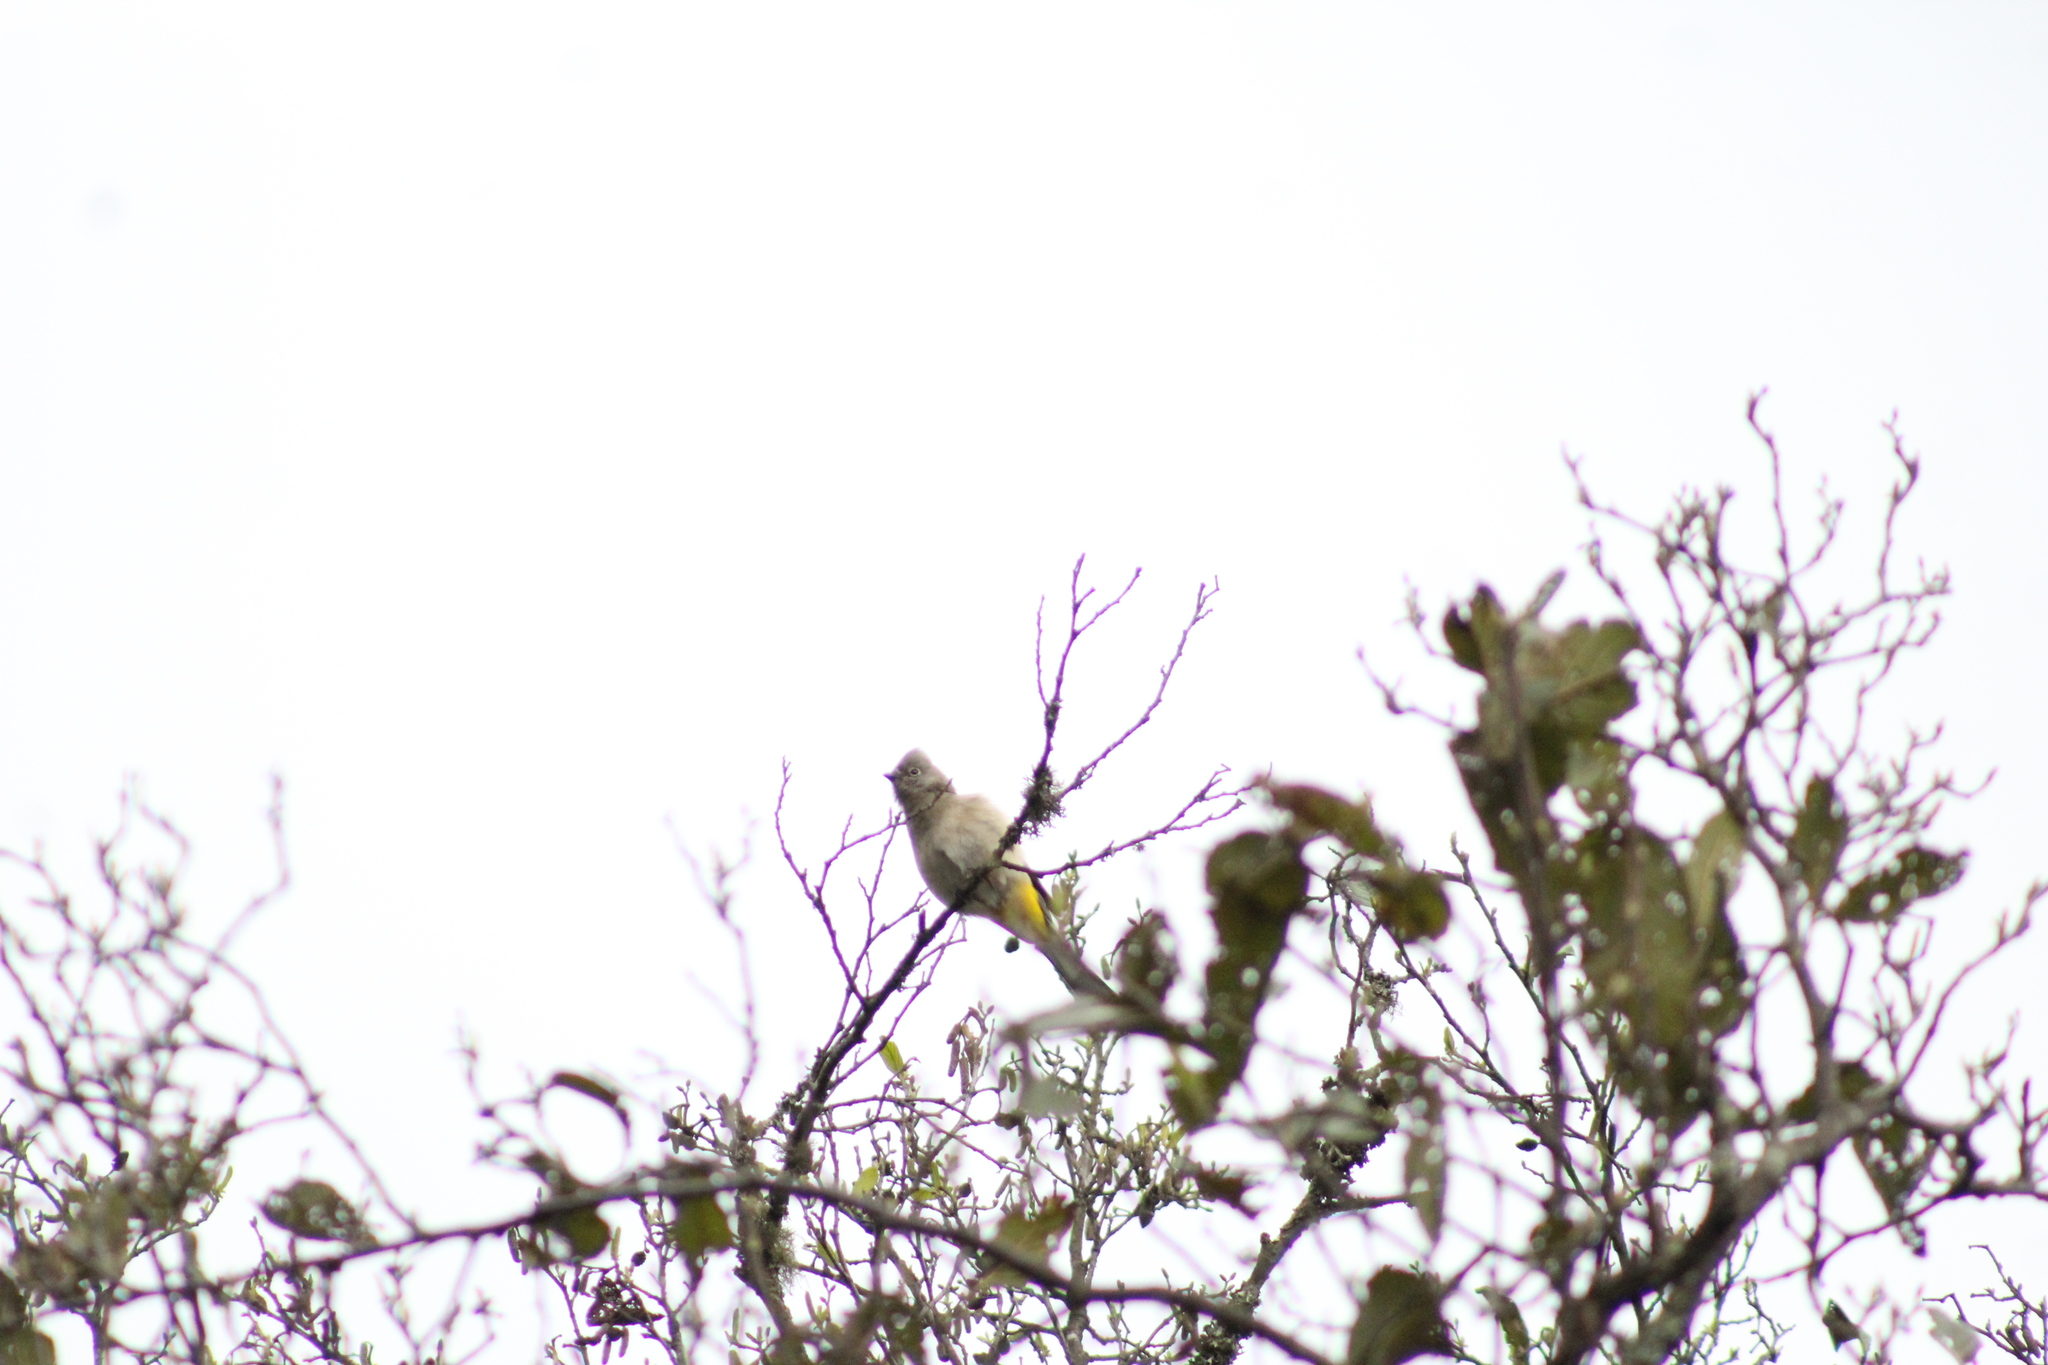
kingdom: Animalia
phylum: Chordata
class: Aves
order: Passeriformes
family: Ptilogonatidae
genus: Ptilogonys
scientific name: Ptilogonys cinereus
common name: Gray silky-flycatcher
